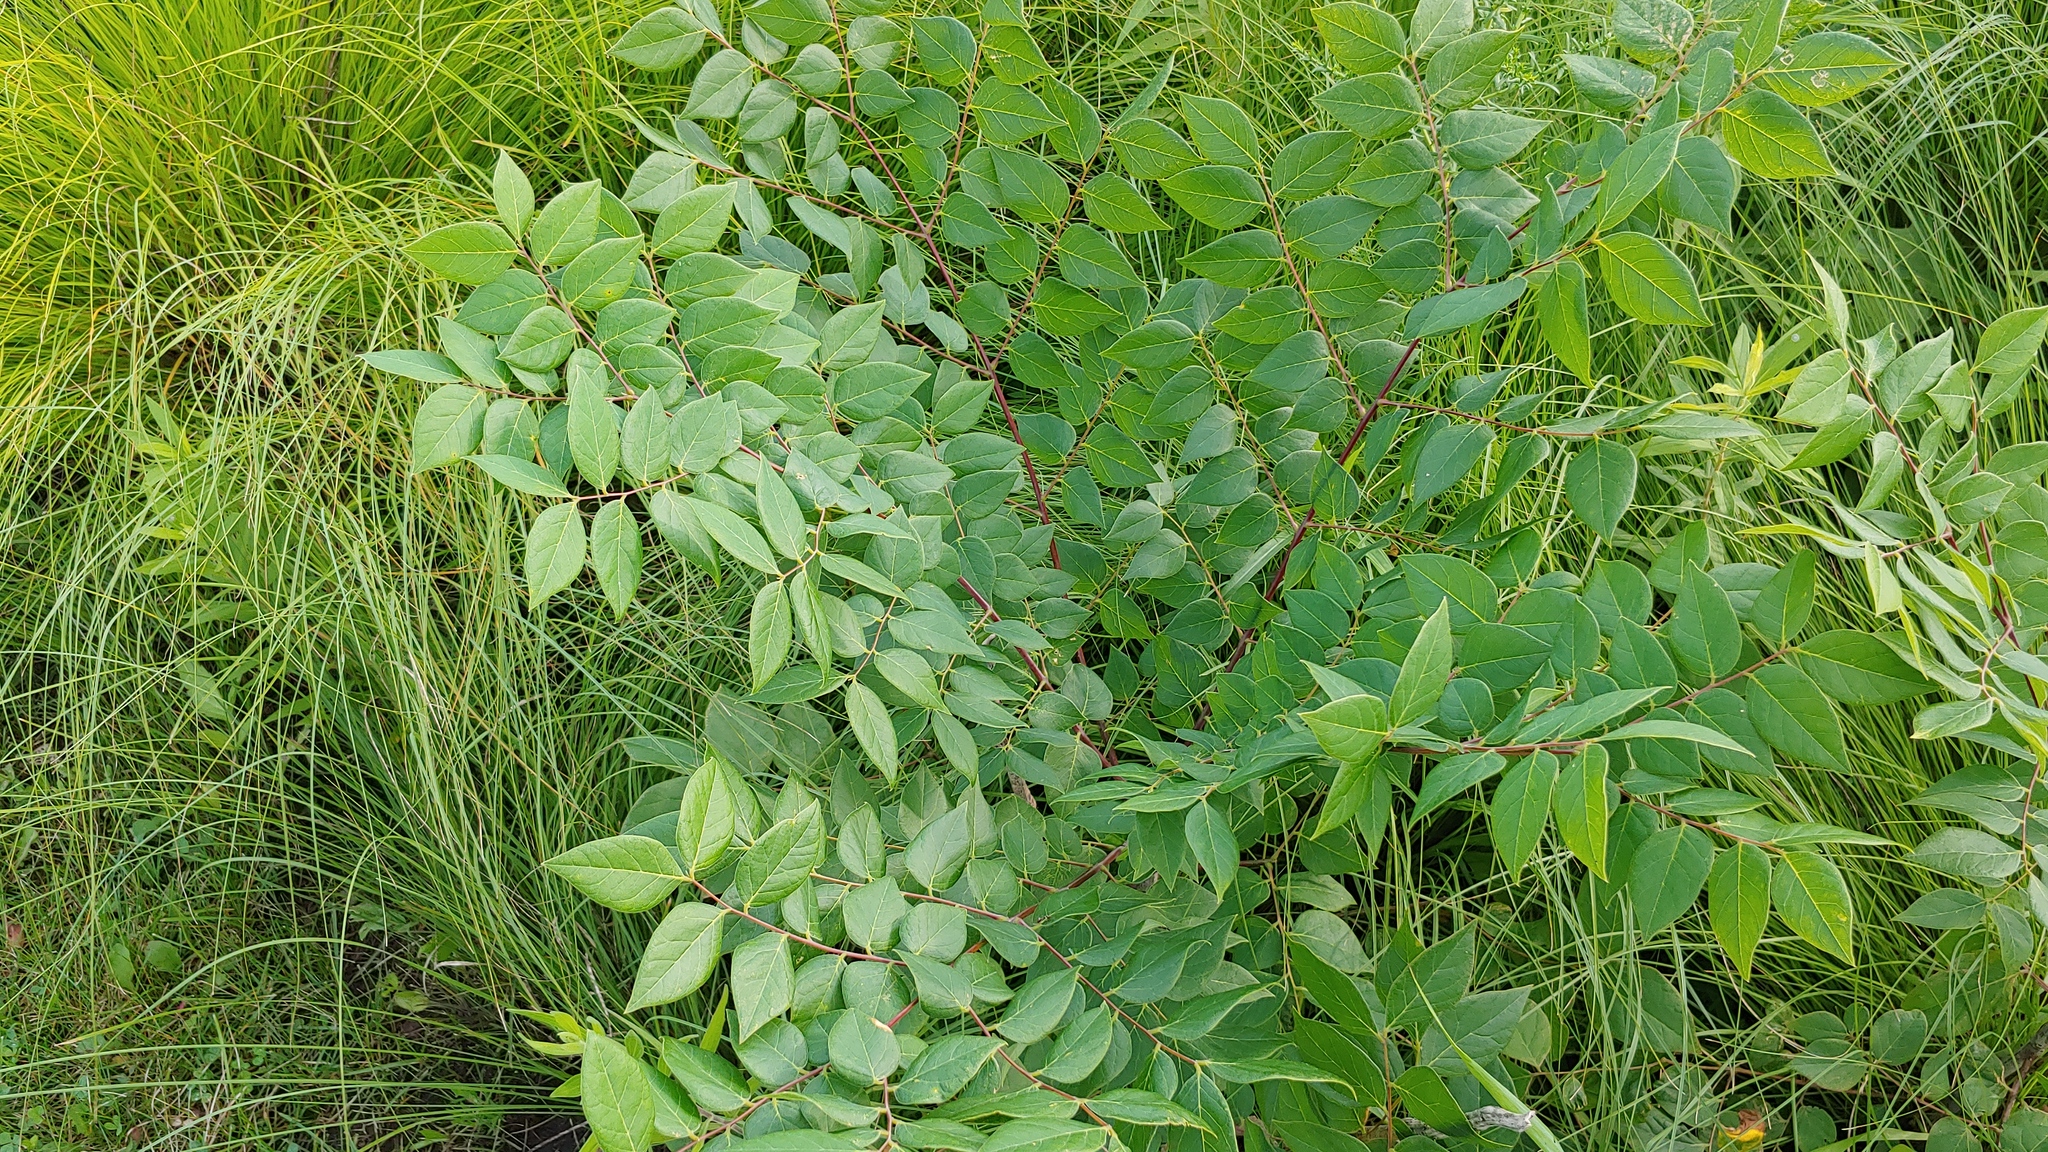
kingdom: Plantae
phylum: Tracheophyta
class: Magnoliopsida
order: Fabales
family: Fabaceae
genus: Gymnocladus
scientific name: Gymnocladus dioicus
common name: Kentucky coffee-tree
